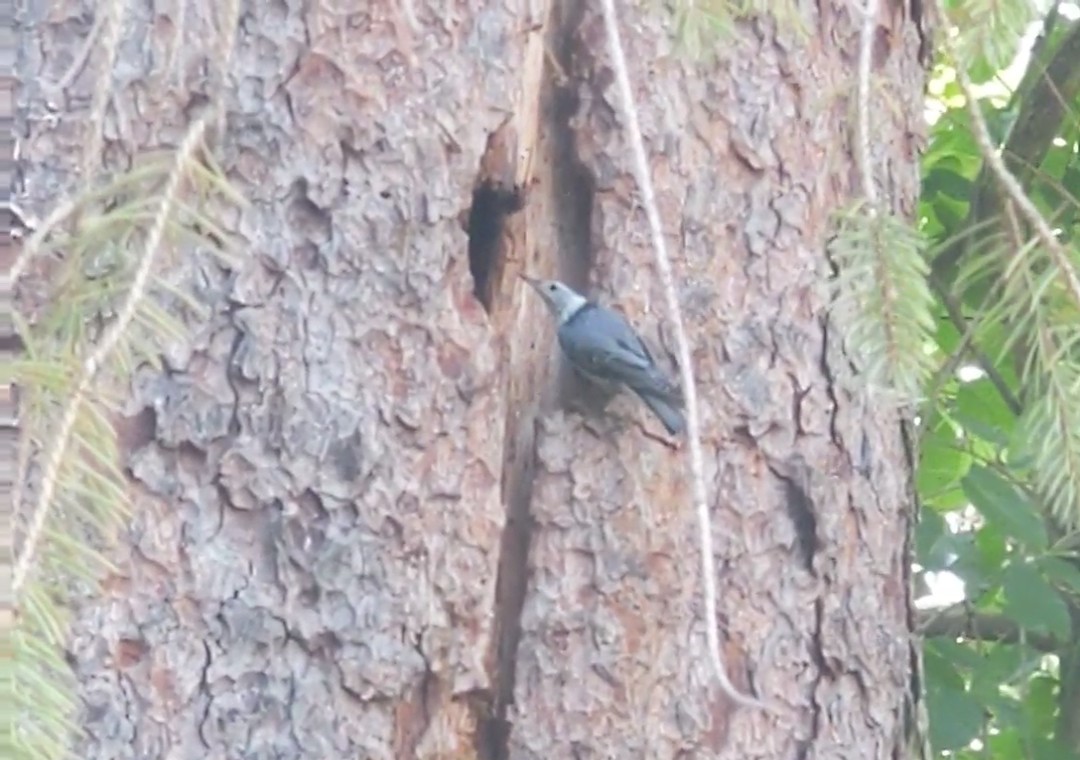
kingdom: Animalia
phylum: Chordata
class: Aves
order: Passeriformes
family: Sittidae
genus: Sitta
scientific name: Sitta carolinensis
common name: White-breasted nuthatch
